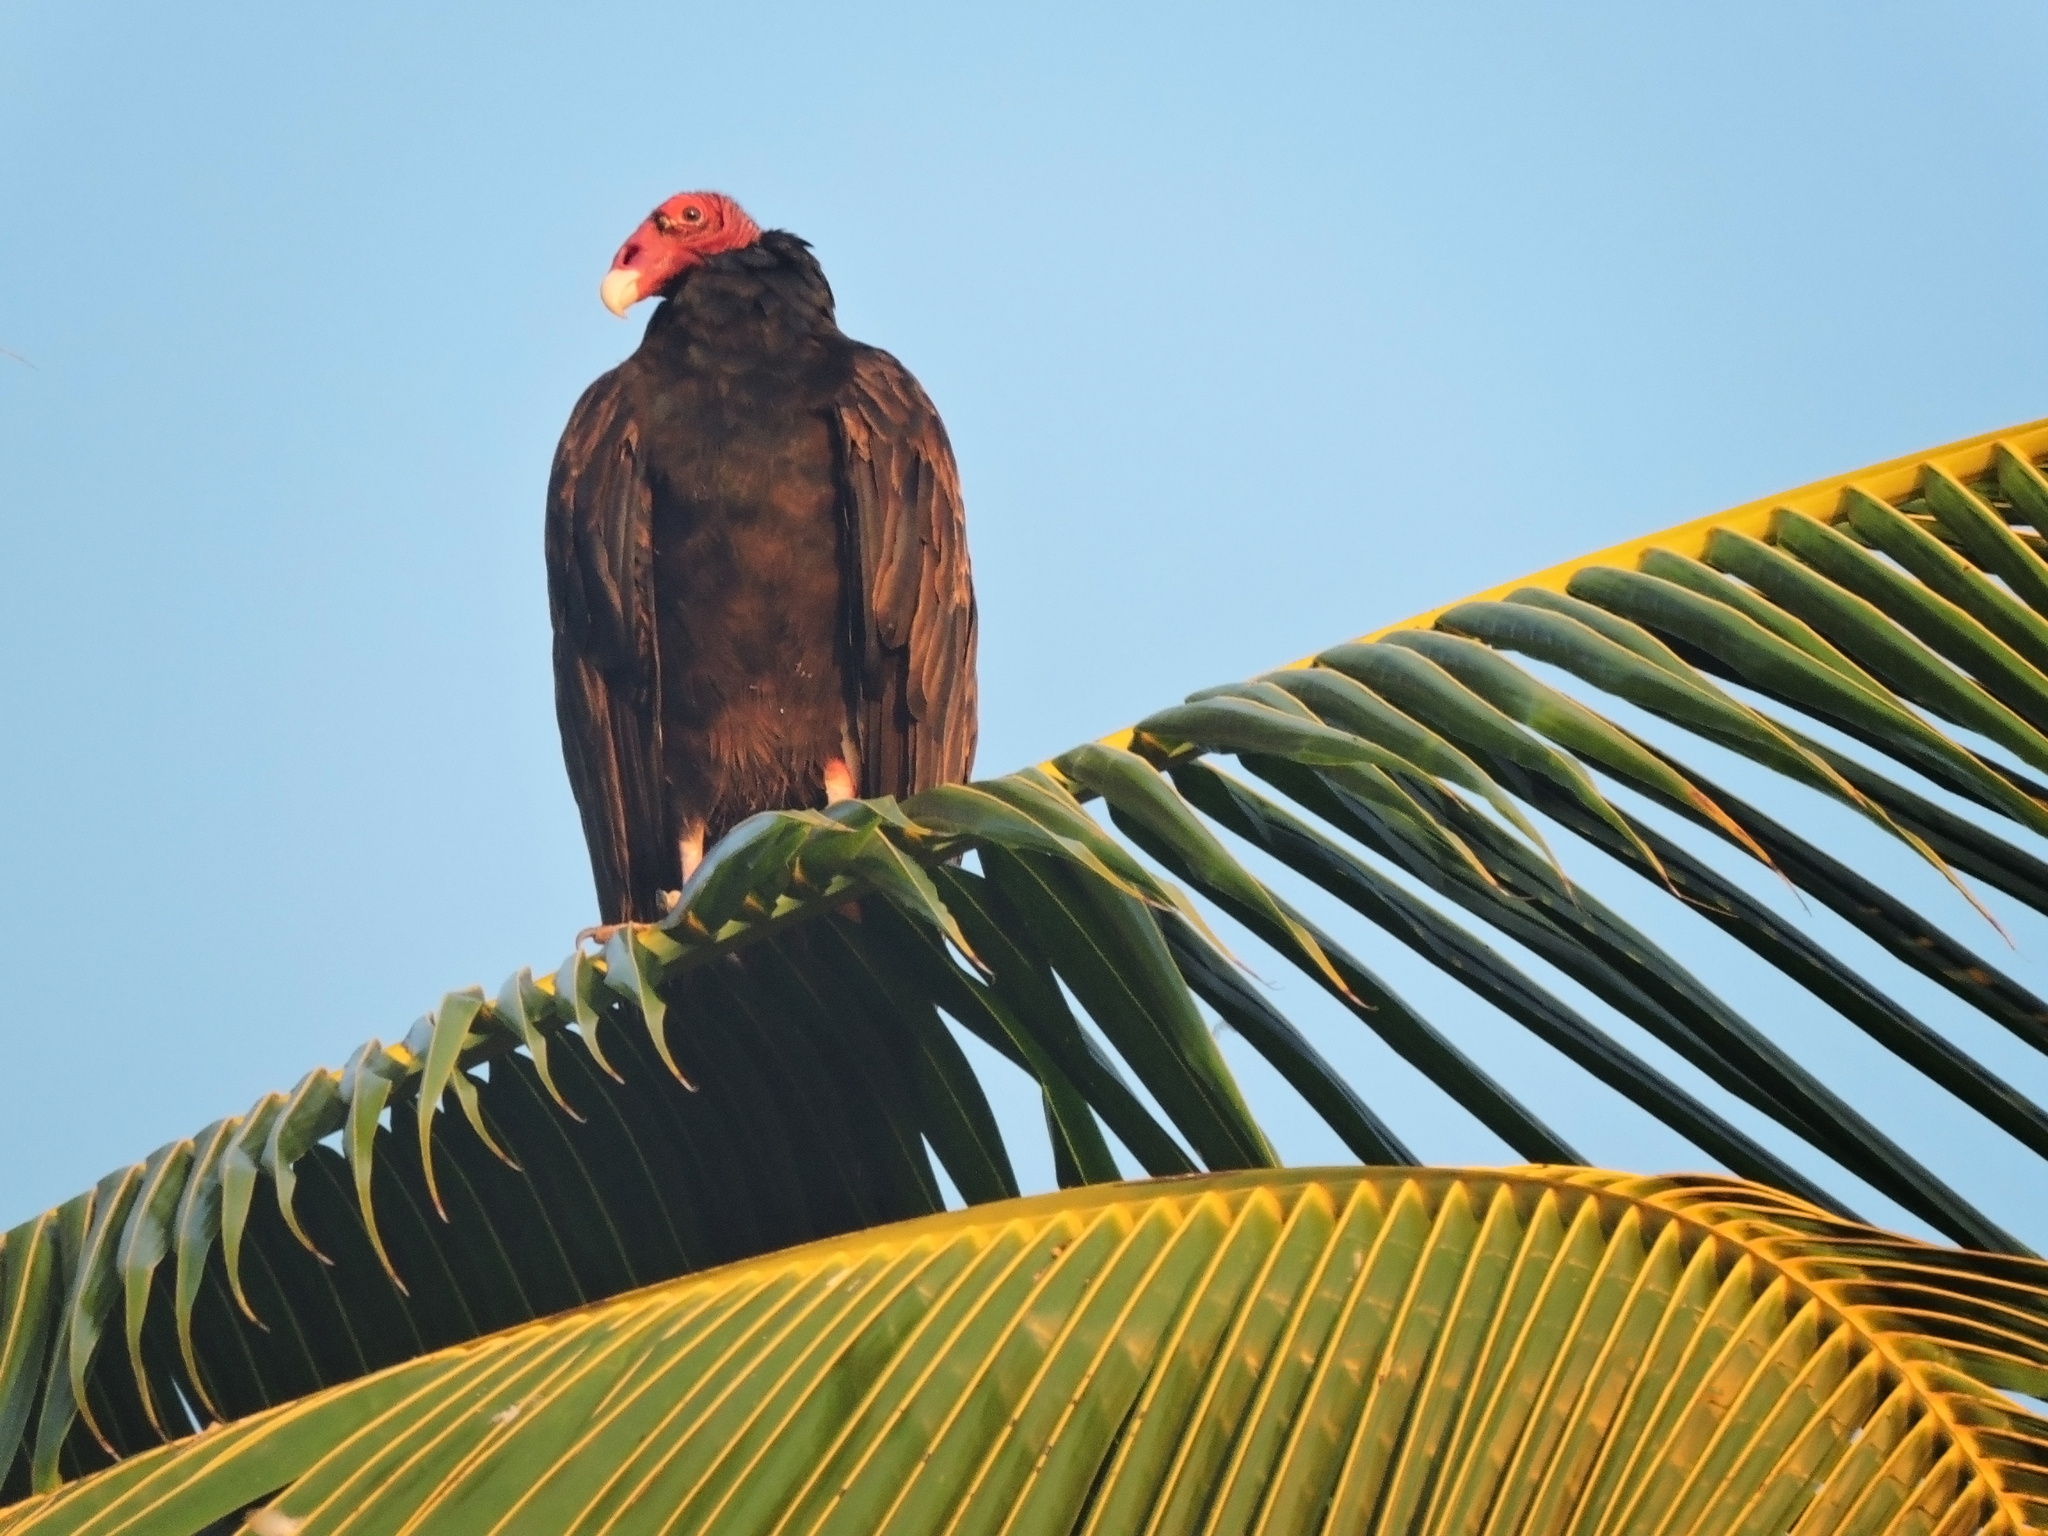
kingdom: Animalia
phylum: Chordata
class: Aves
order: Accipitriformes
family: Cathartidae
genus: Cathartes
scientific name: Cathartes aura
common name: Turkey vulture
